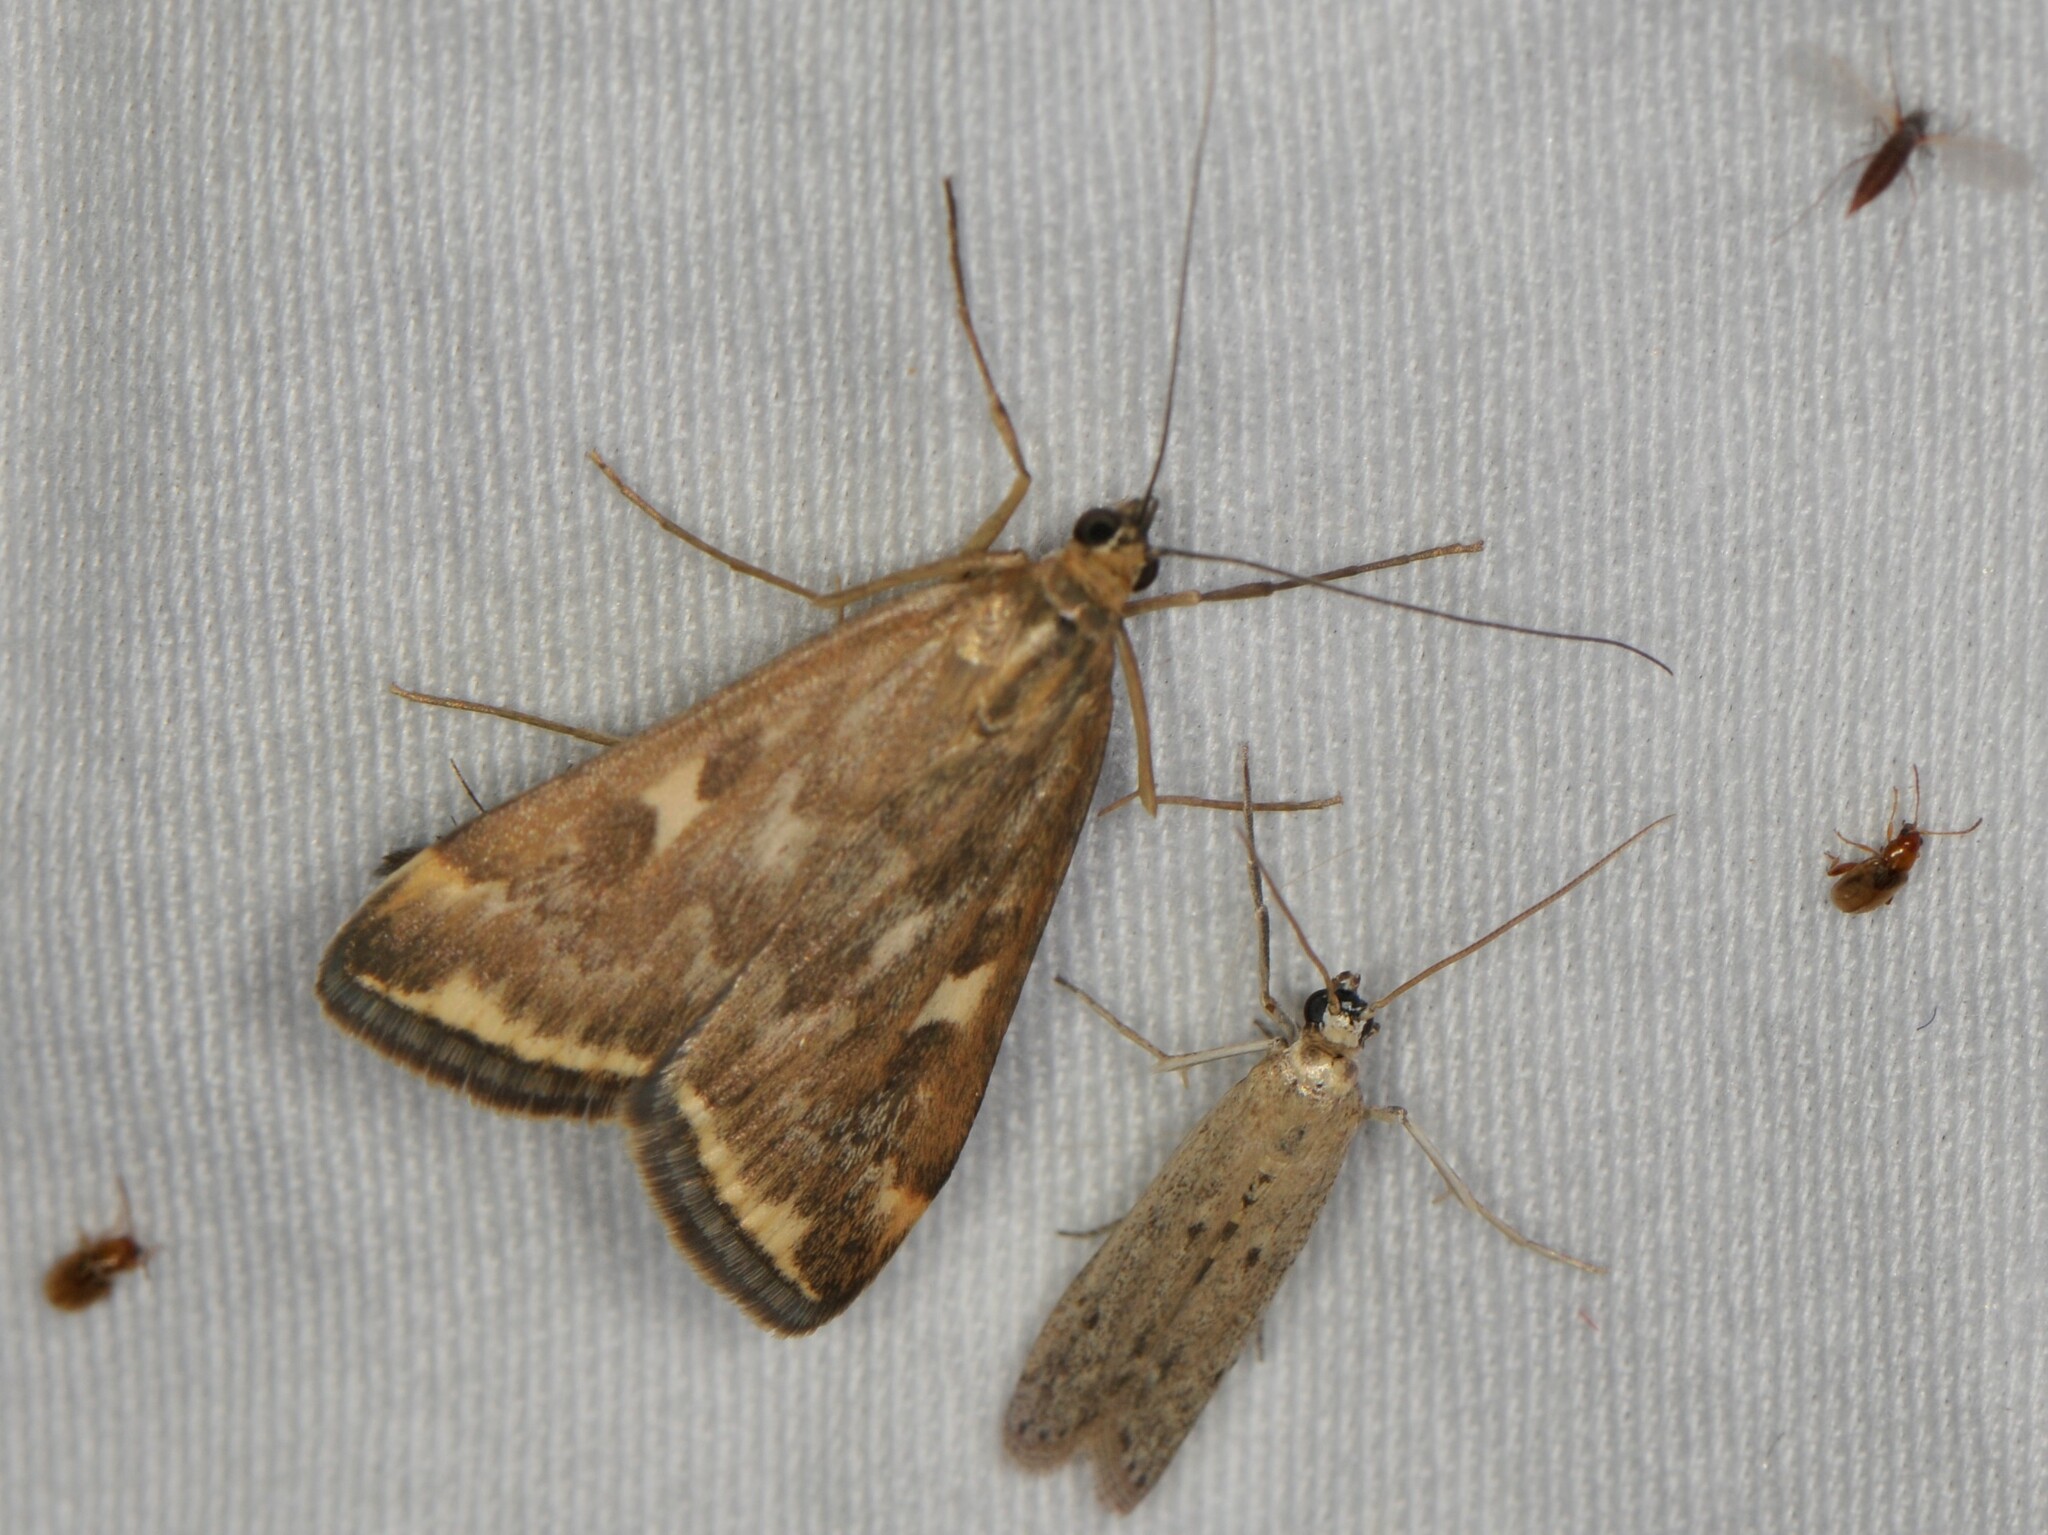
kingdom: Animalia
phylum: Arthropoda
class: Insecta
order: Lepidoptera
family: Crambidae
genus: Loxostege
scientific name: Loxostege
